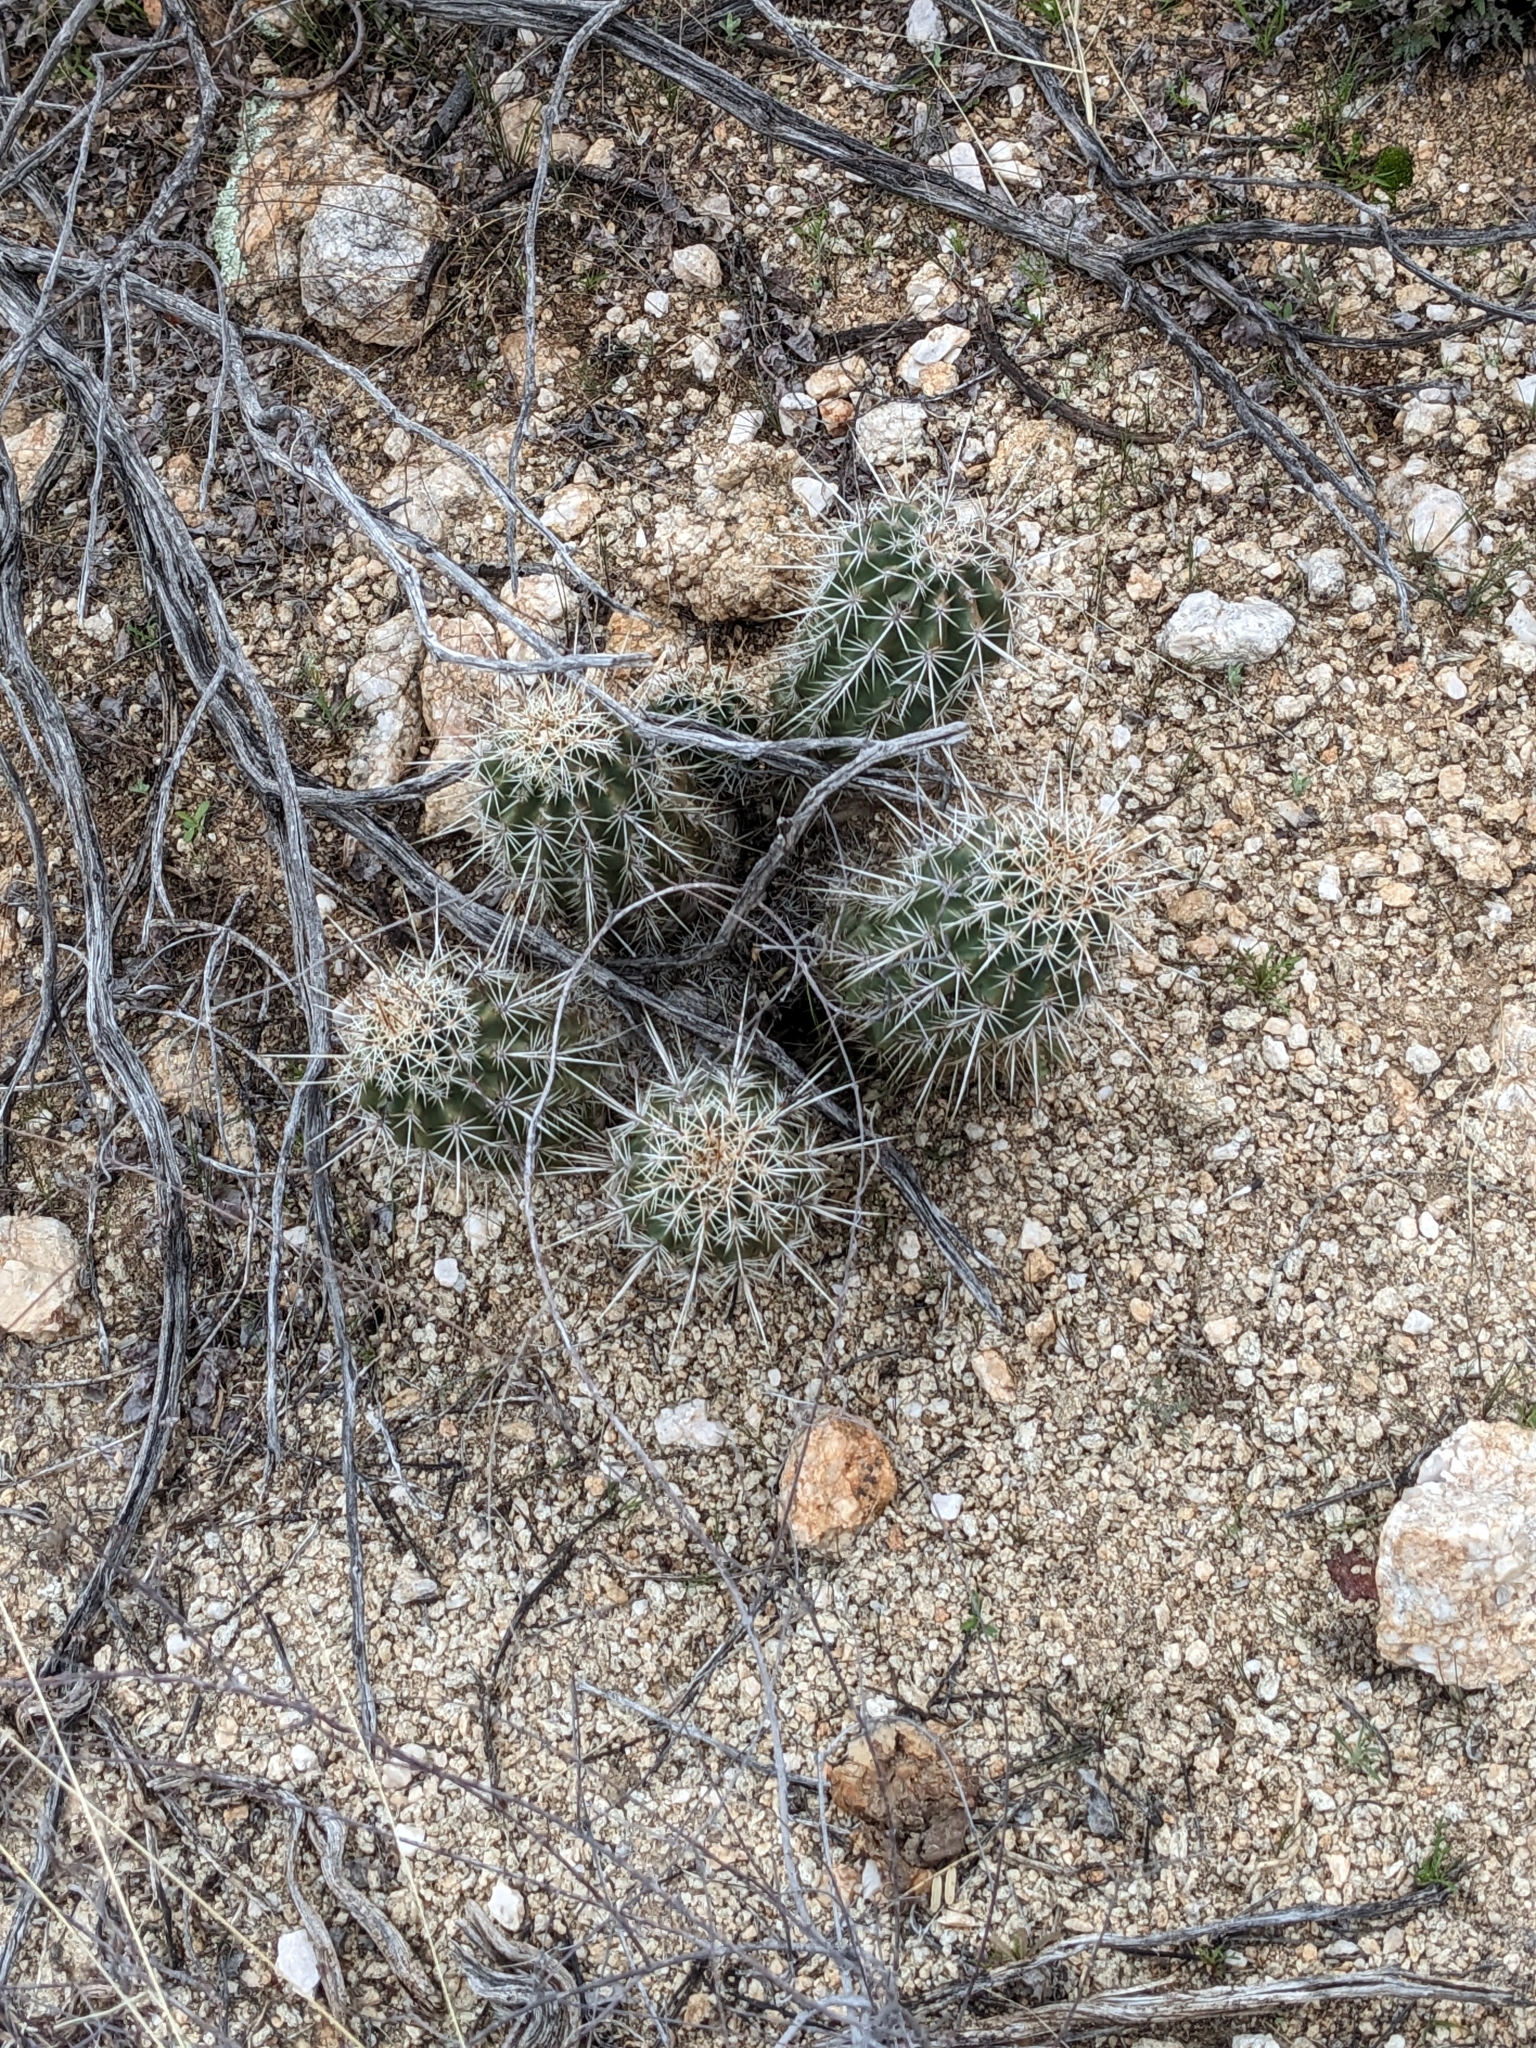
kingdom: Plantae
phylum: Tracheophyta
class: Magnoliopsida
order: Caryophyllales
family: Cactaceae
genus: Echinocereus
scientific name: Echinocereus fasciculatus
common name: Bundle hedgehog
